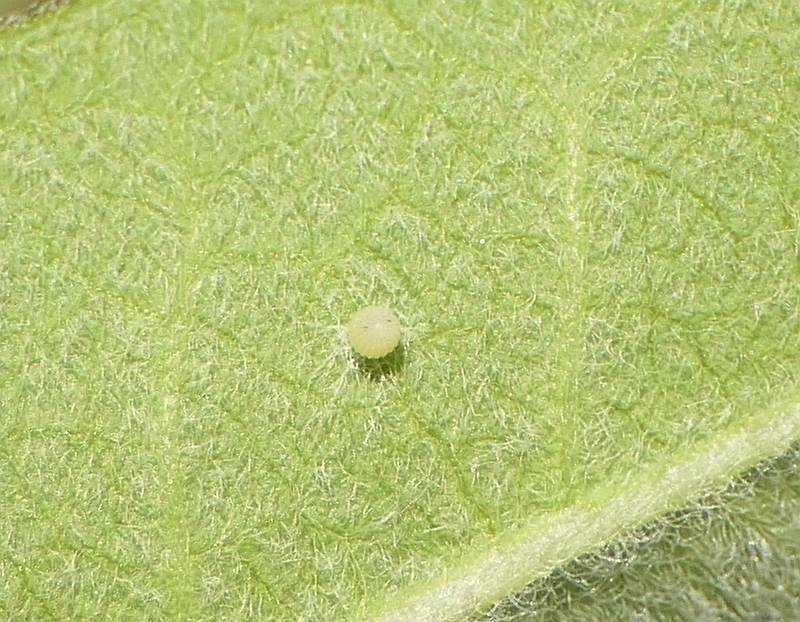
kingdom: Animalia
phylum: Arthropoda
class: Insecta
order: Lepidoptera
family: Nymphalidae
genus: Danaus
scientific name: Danaus plexippus
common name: Monarch
